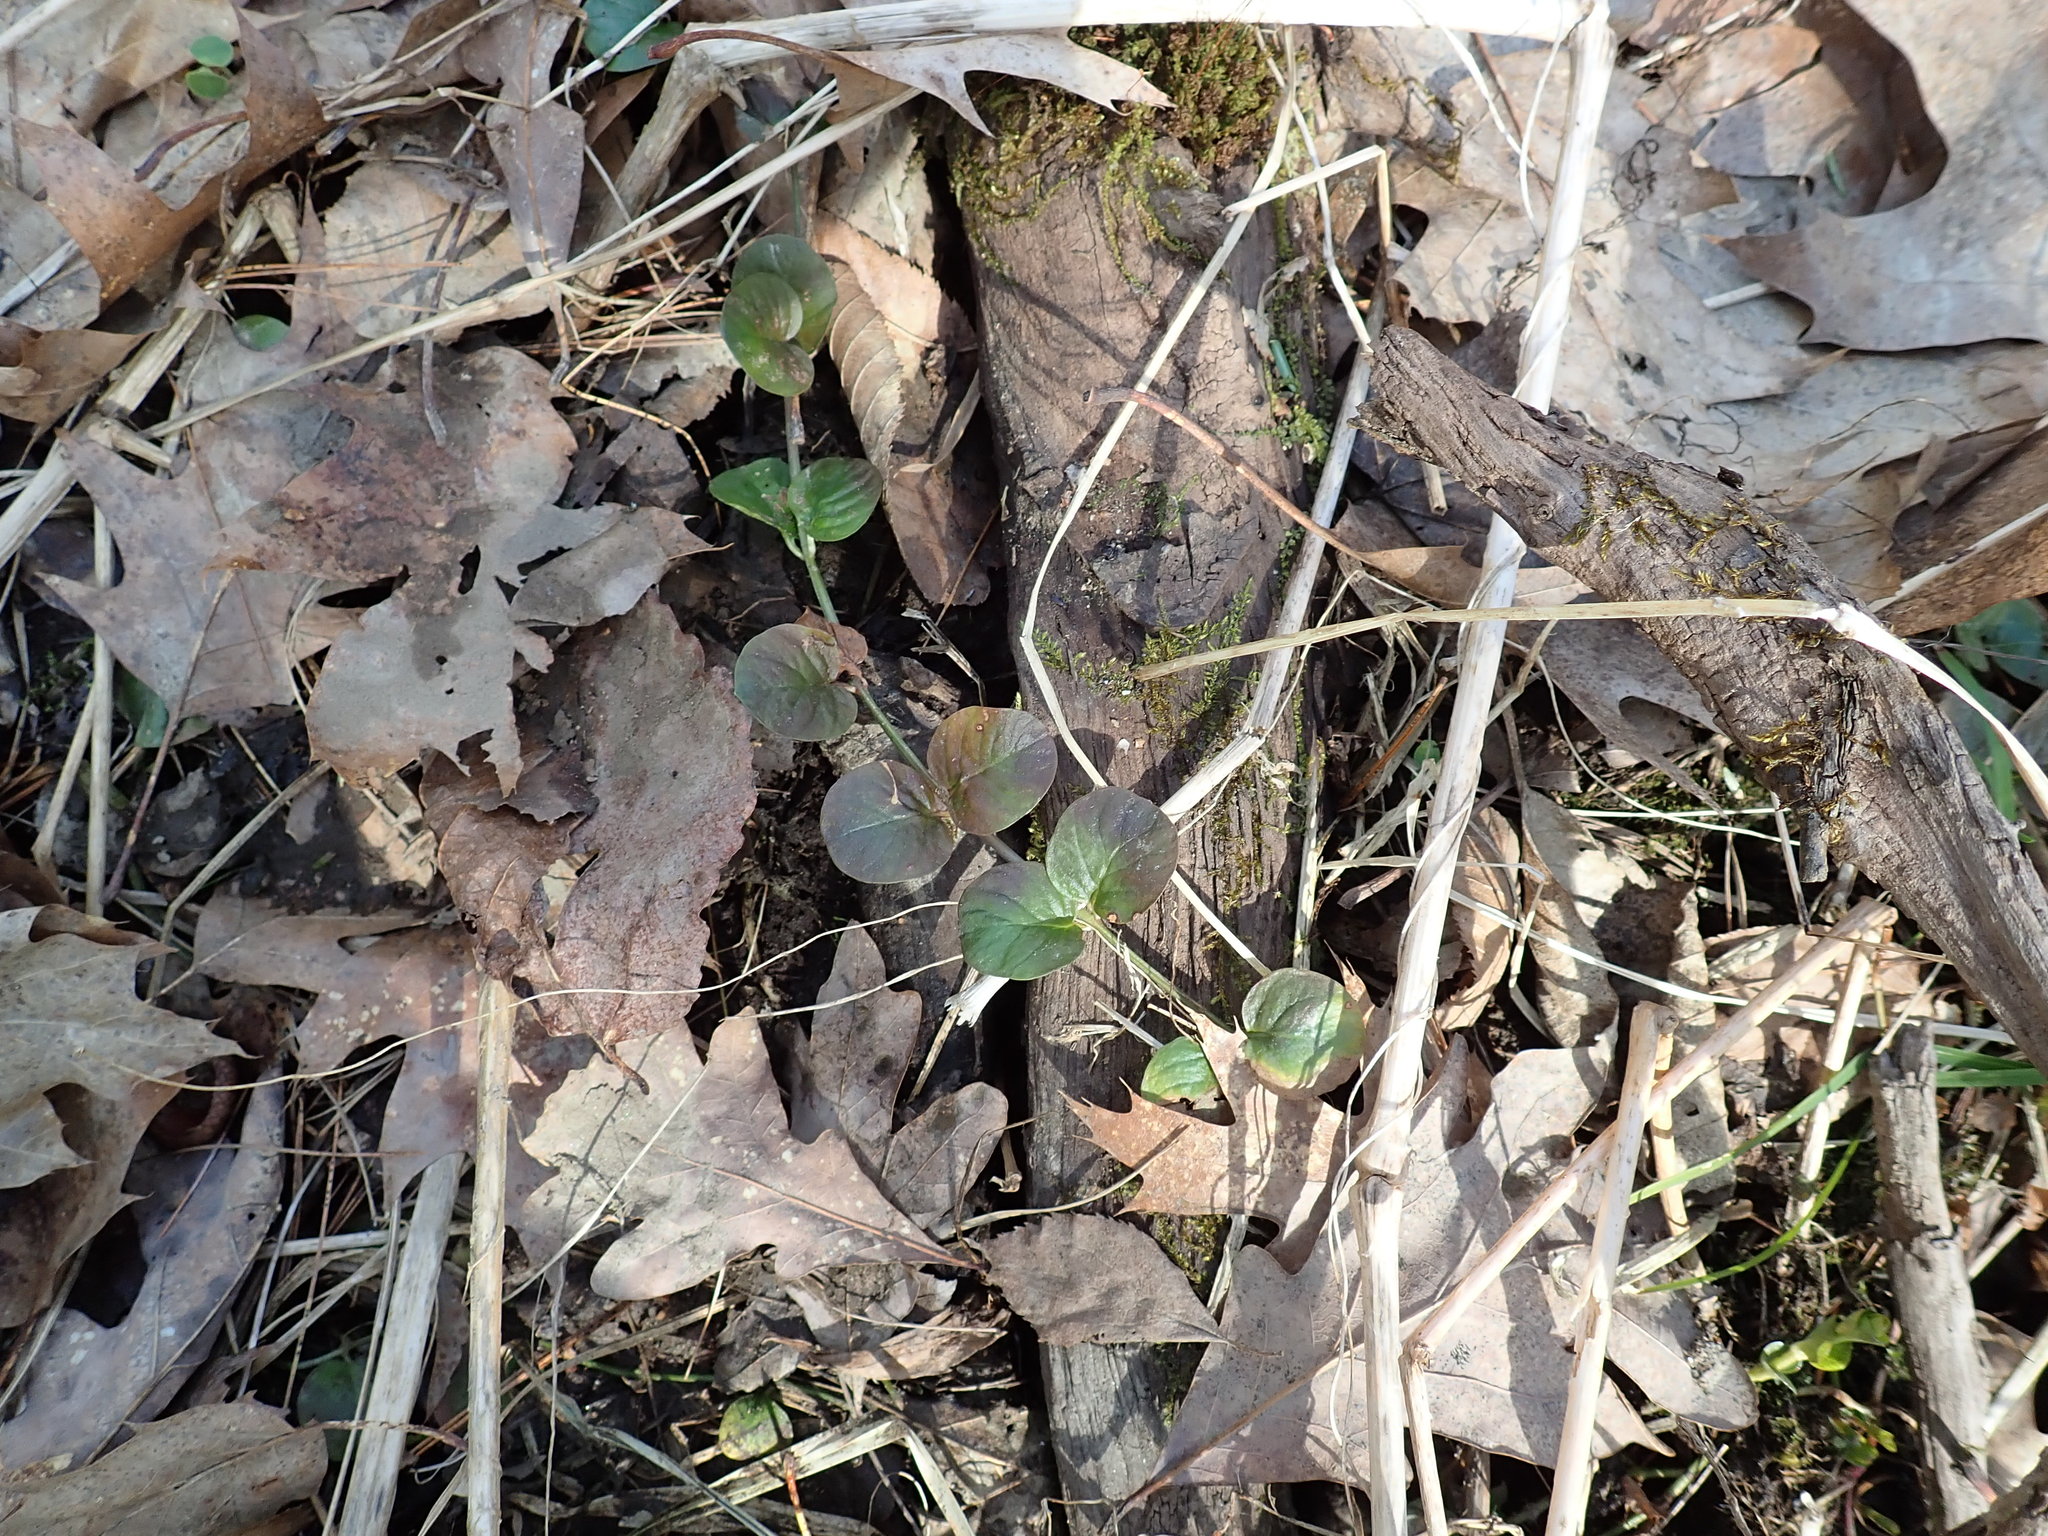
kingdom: Plantae
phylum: Tracheophyta
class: Magnoliopsida
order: Ericales
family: Primulaceae
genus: Lysimachia
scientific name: Lysimachia nummularia
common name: Moneywort
